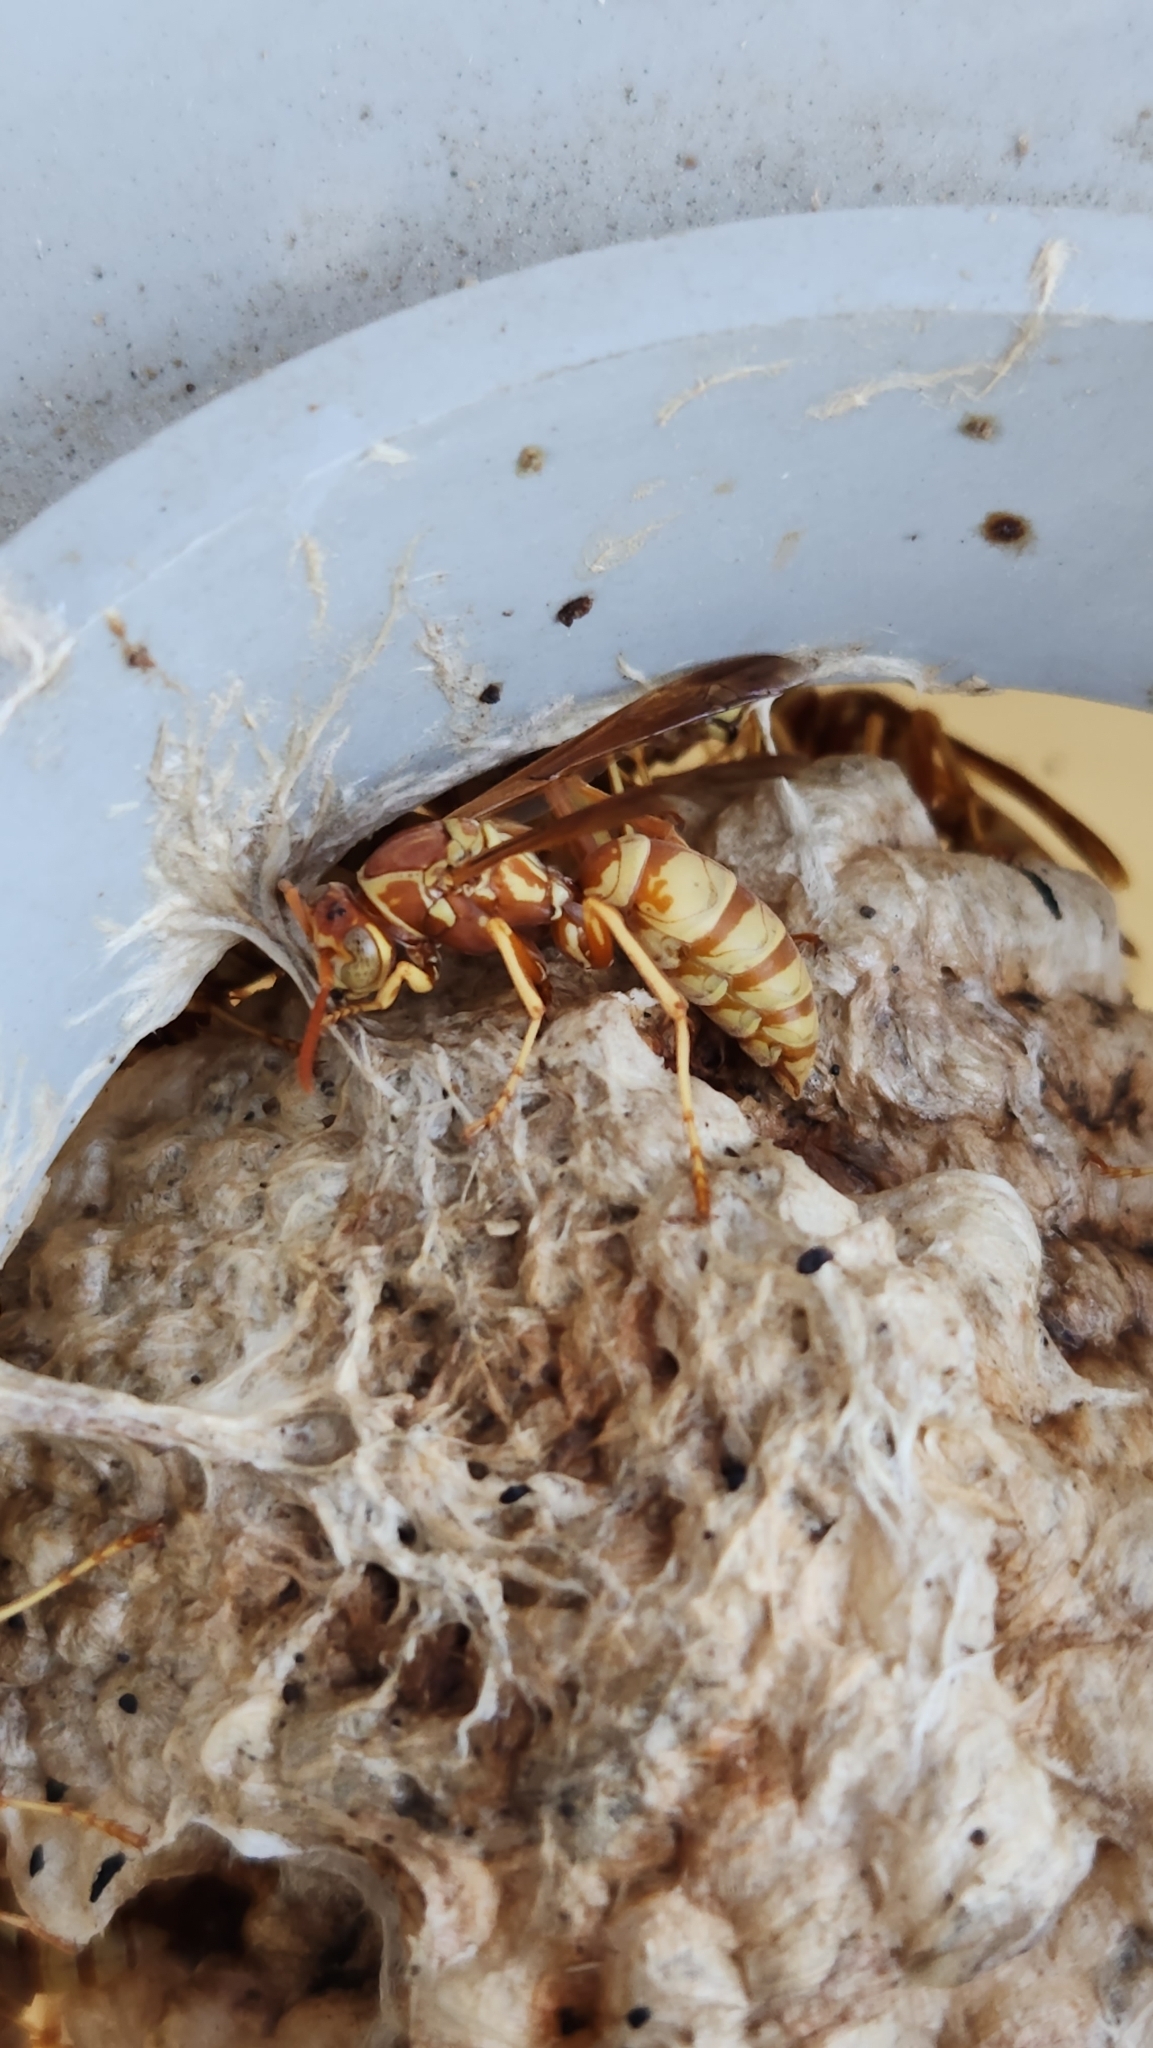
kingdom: Animalia
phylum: Arthropoda
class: Insecta
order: Hymenoptera
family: Eumenidae
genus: Polistes
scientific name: Polistes aurifer
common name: Paper wasp
